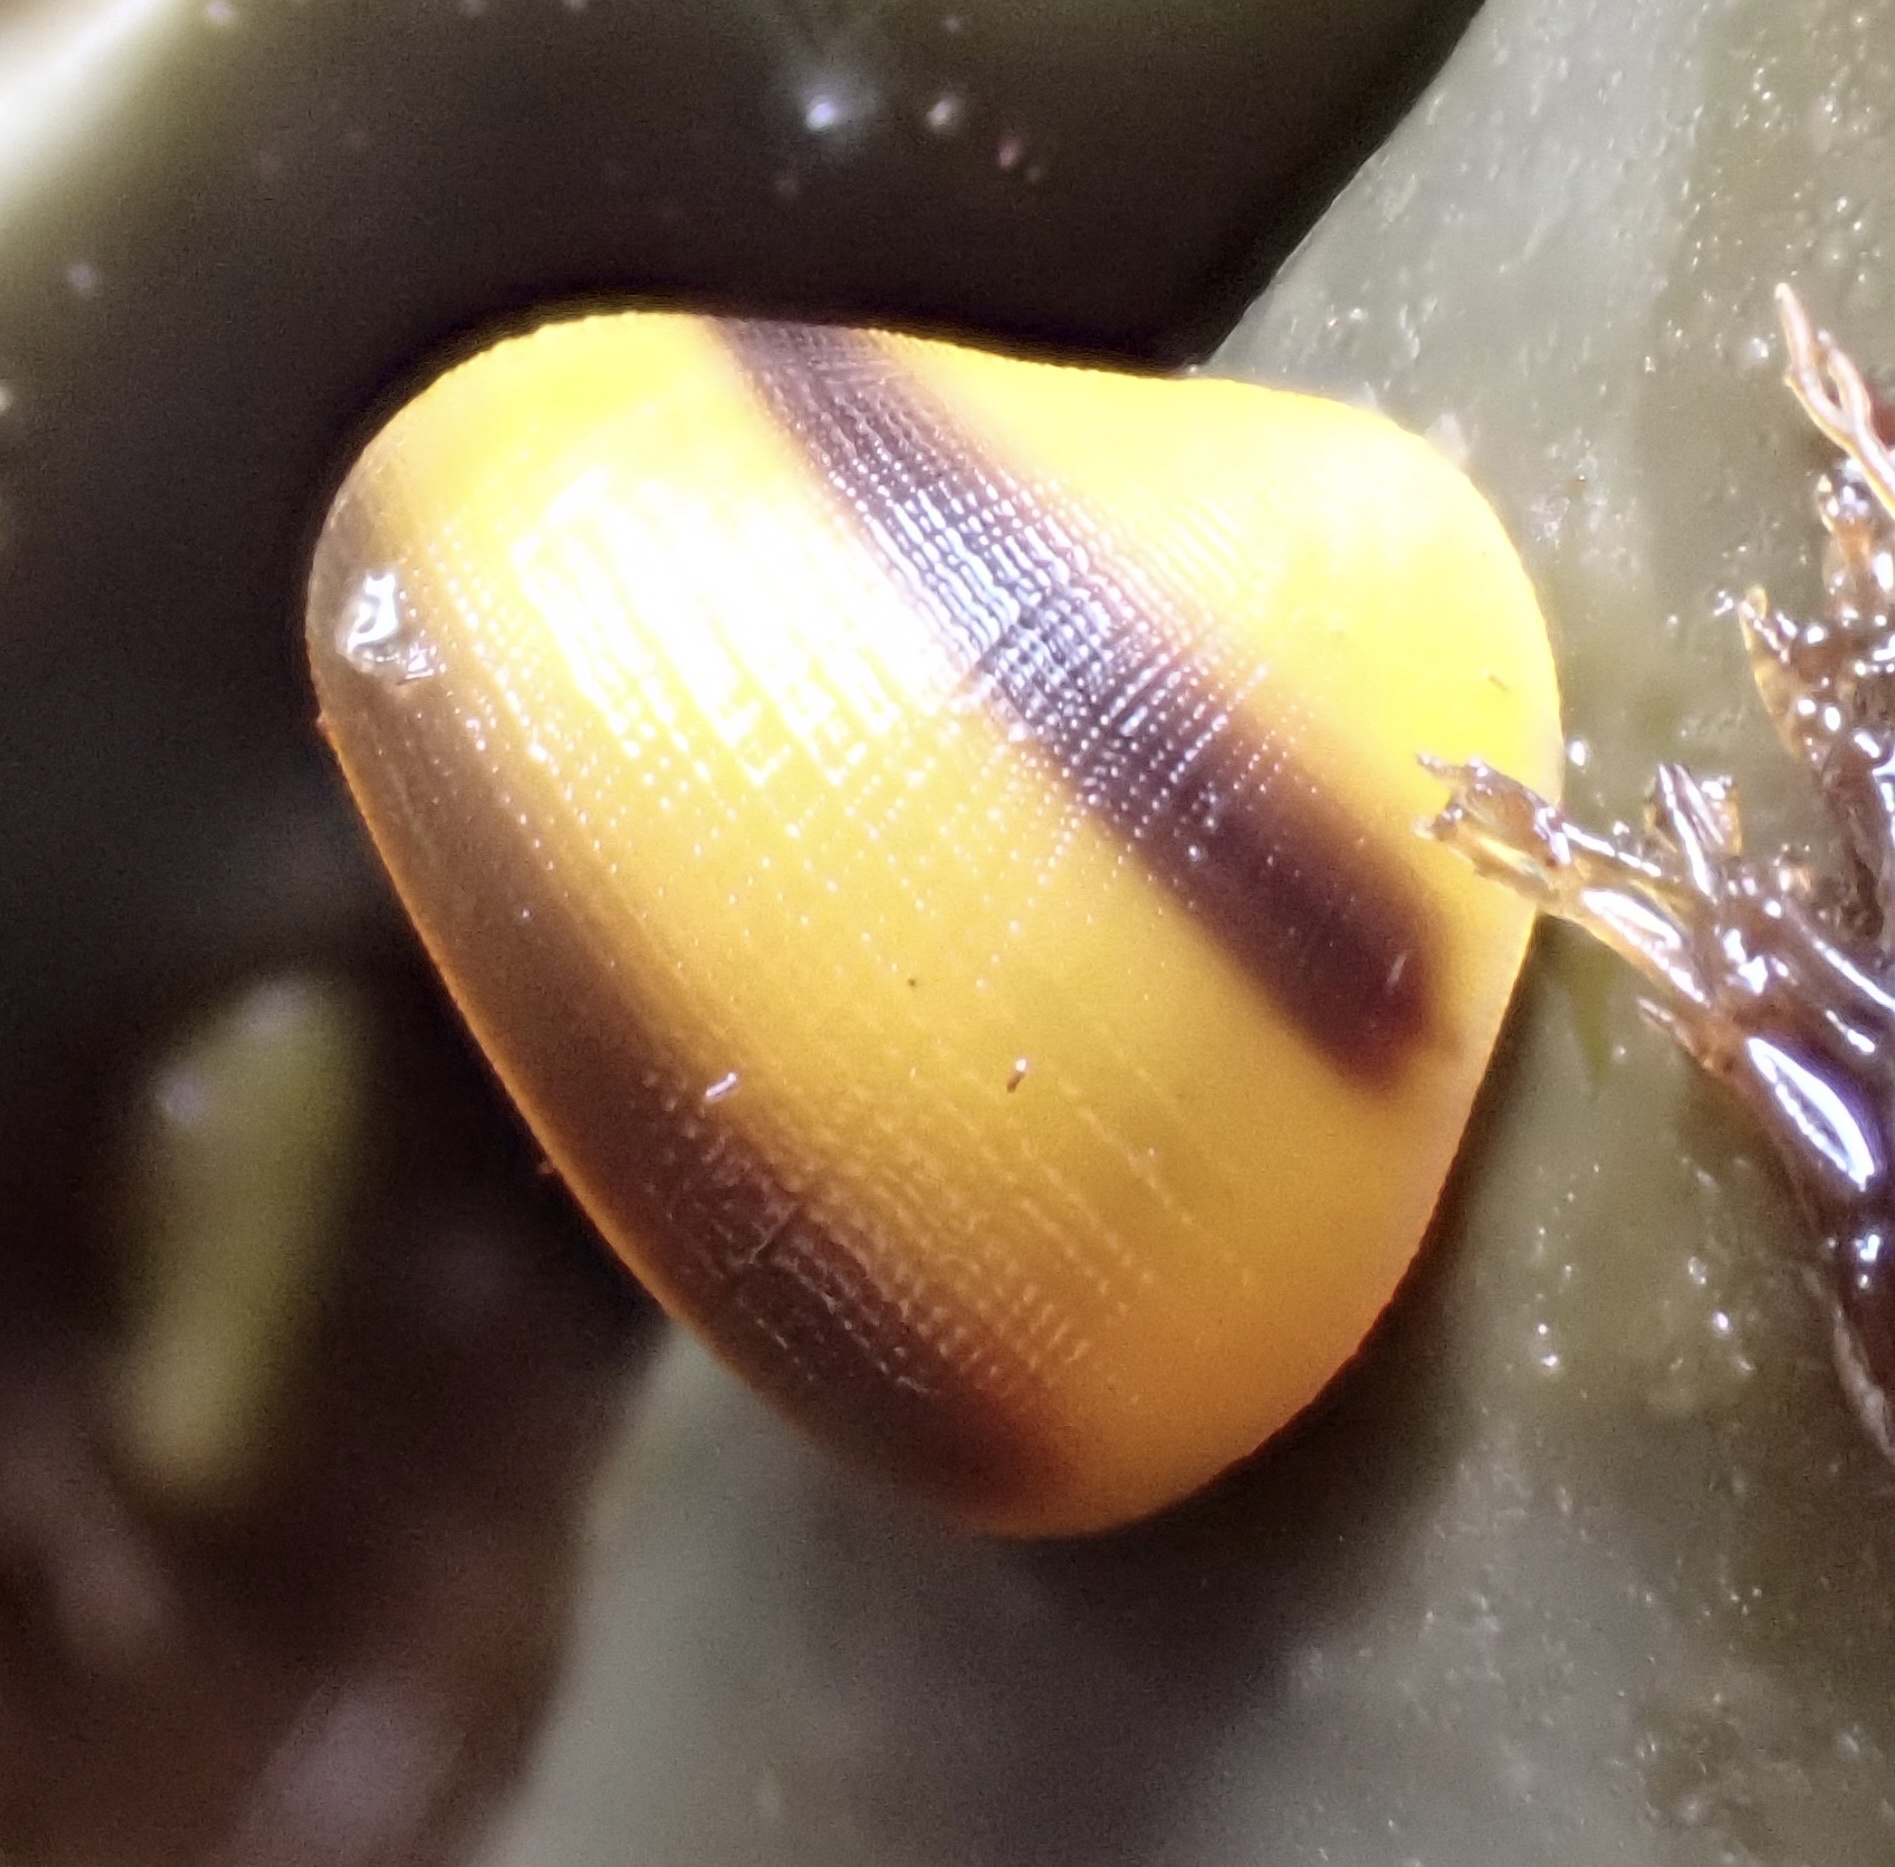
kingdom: Animalia
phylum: Mollusca
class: Gastropoda
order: Littorinimorpha
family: Littorinidae
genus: Littorina
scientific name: Littorina
